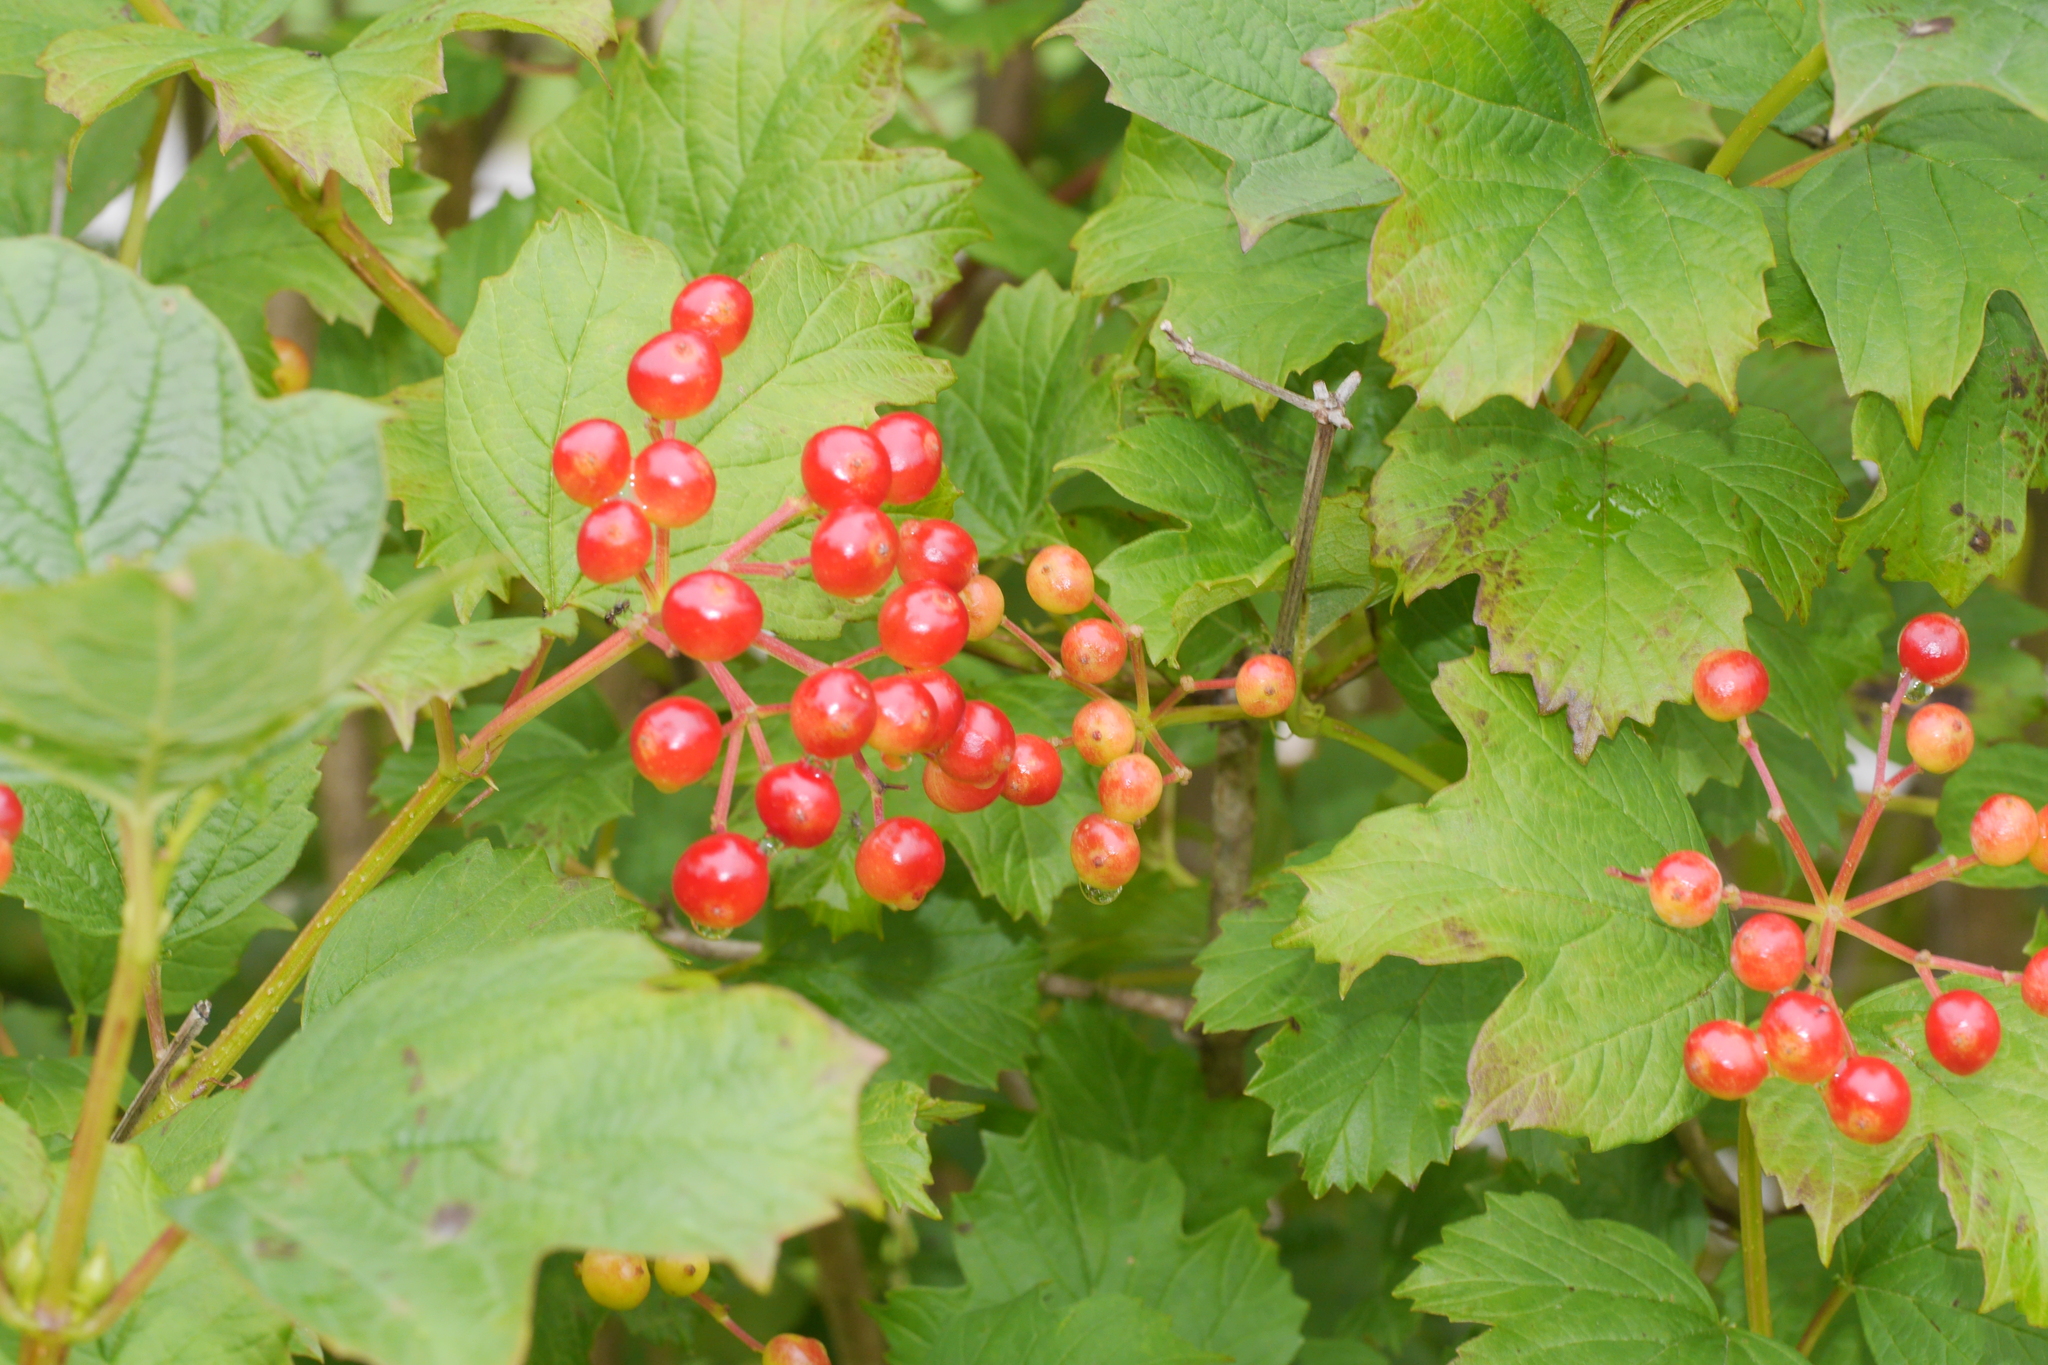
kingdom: Plantae
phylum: Tracheophyta
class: Magnoliopsida
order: Dipsacales
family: Viburnaceae
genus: Viburnum
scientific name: Viburnum opulus
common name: Guelder-rose
